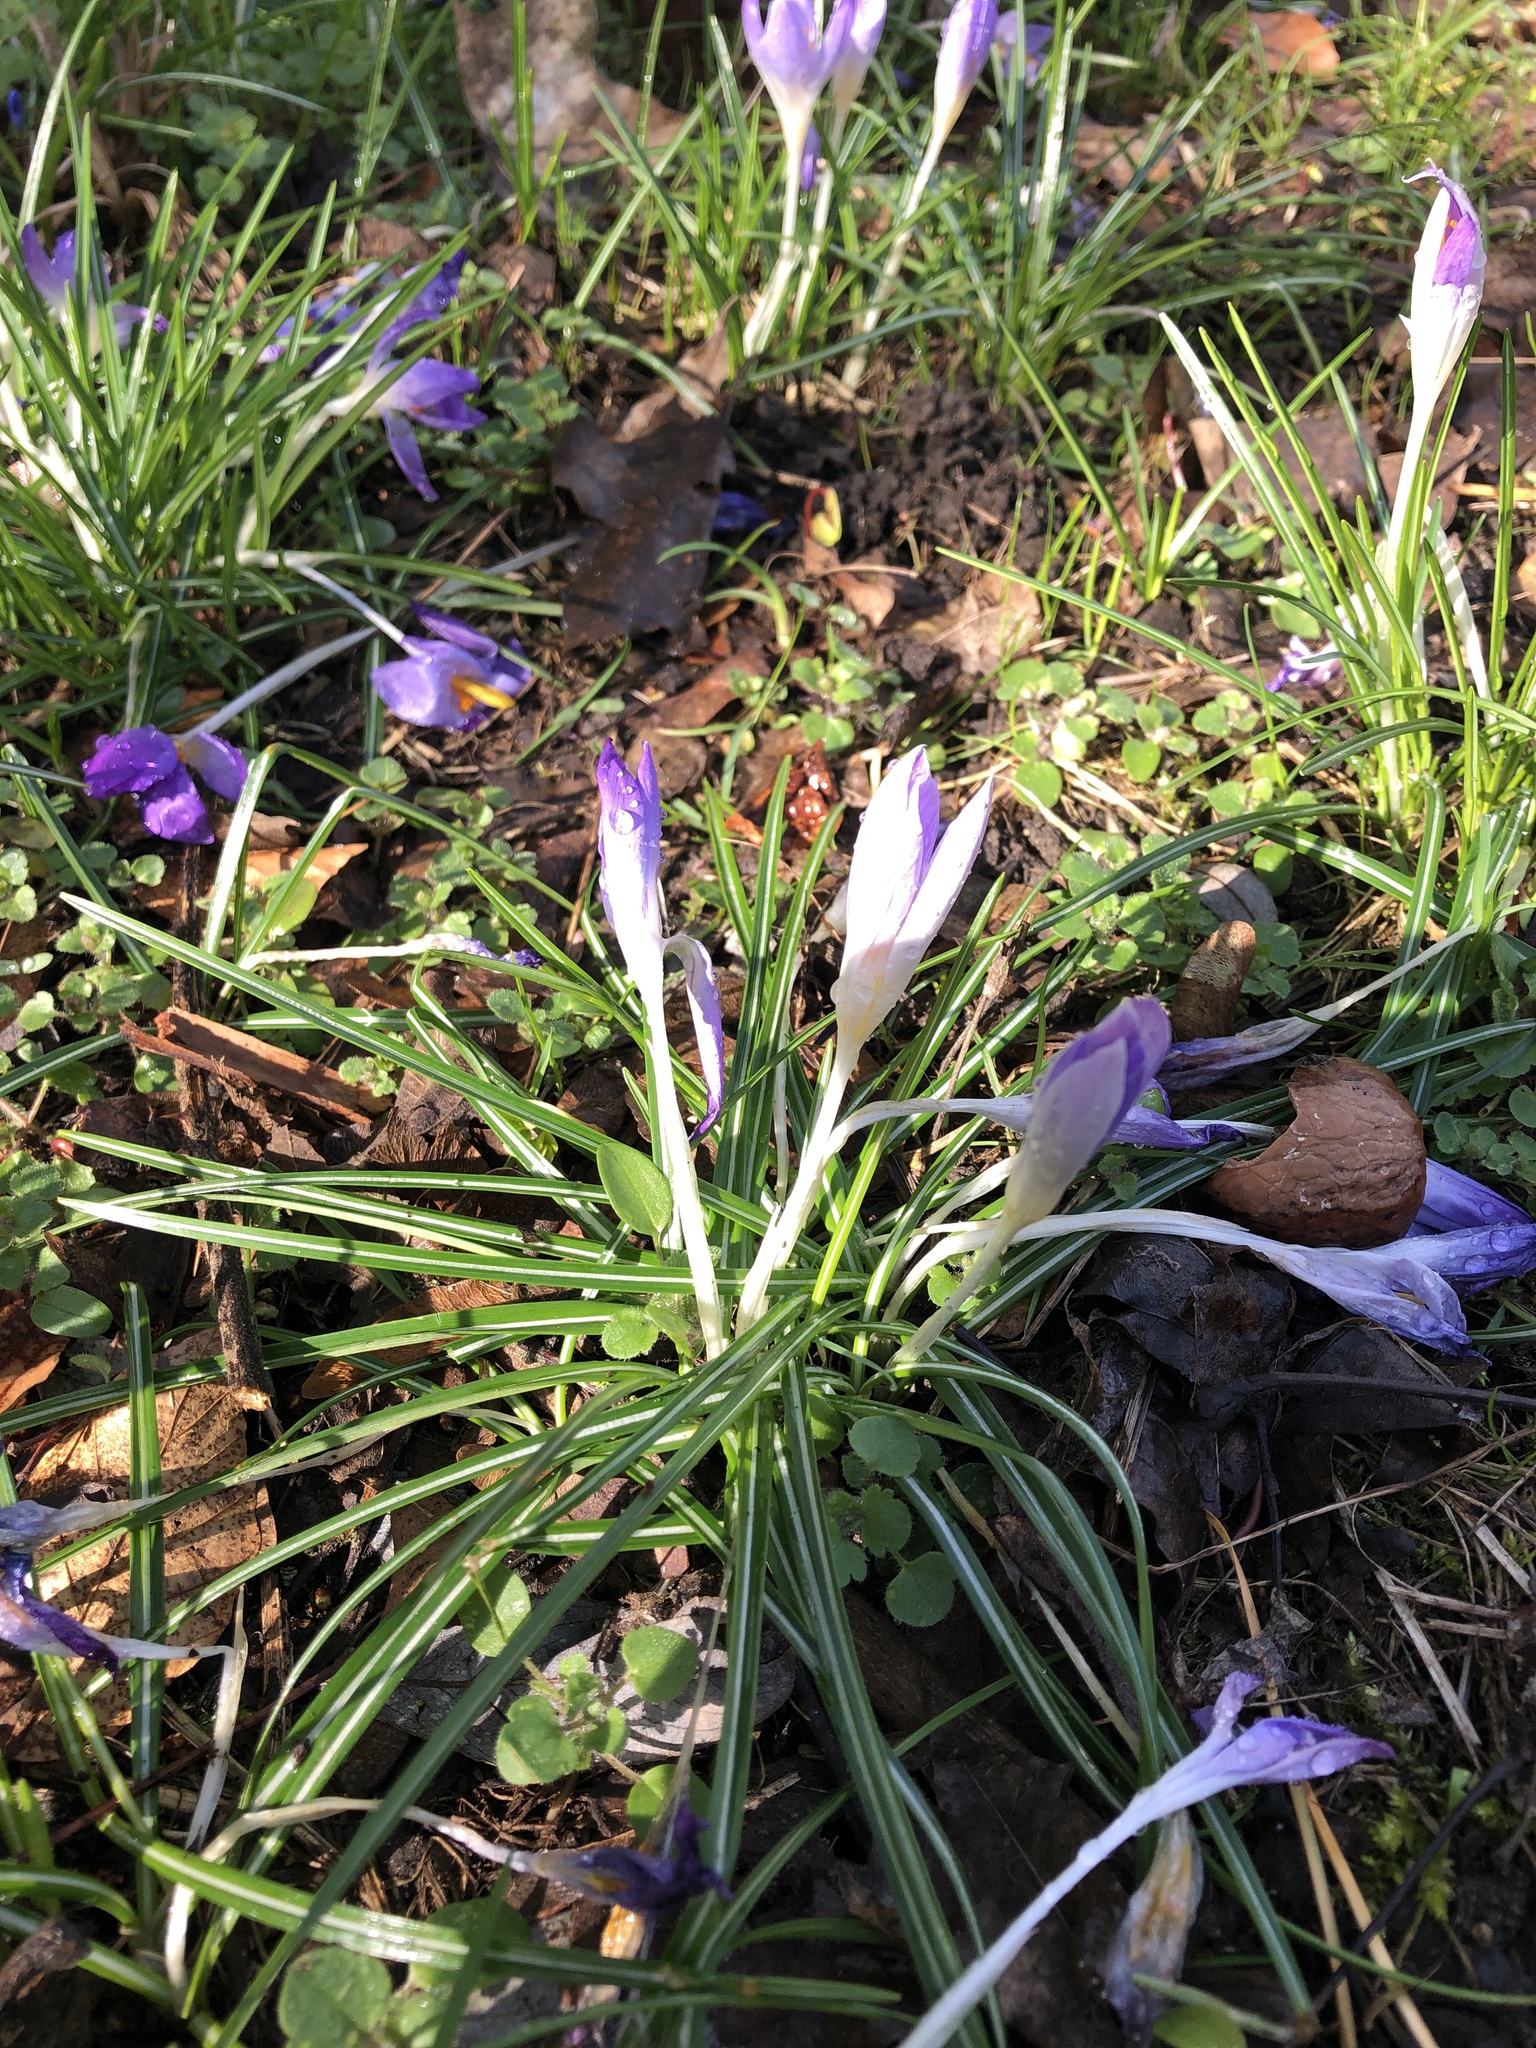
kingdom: Plantae
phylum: Tracheophyta
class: Liliopsida
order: Asparagales
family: Iridaceae
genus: Crocus
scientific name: Crocus tommasinianus
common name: Early crocus
